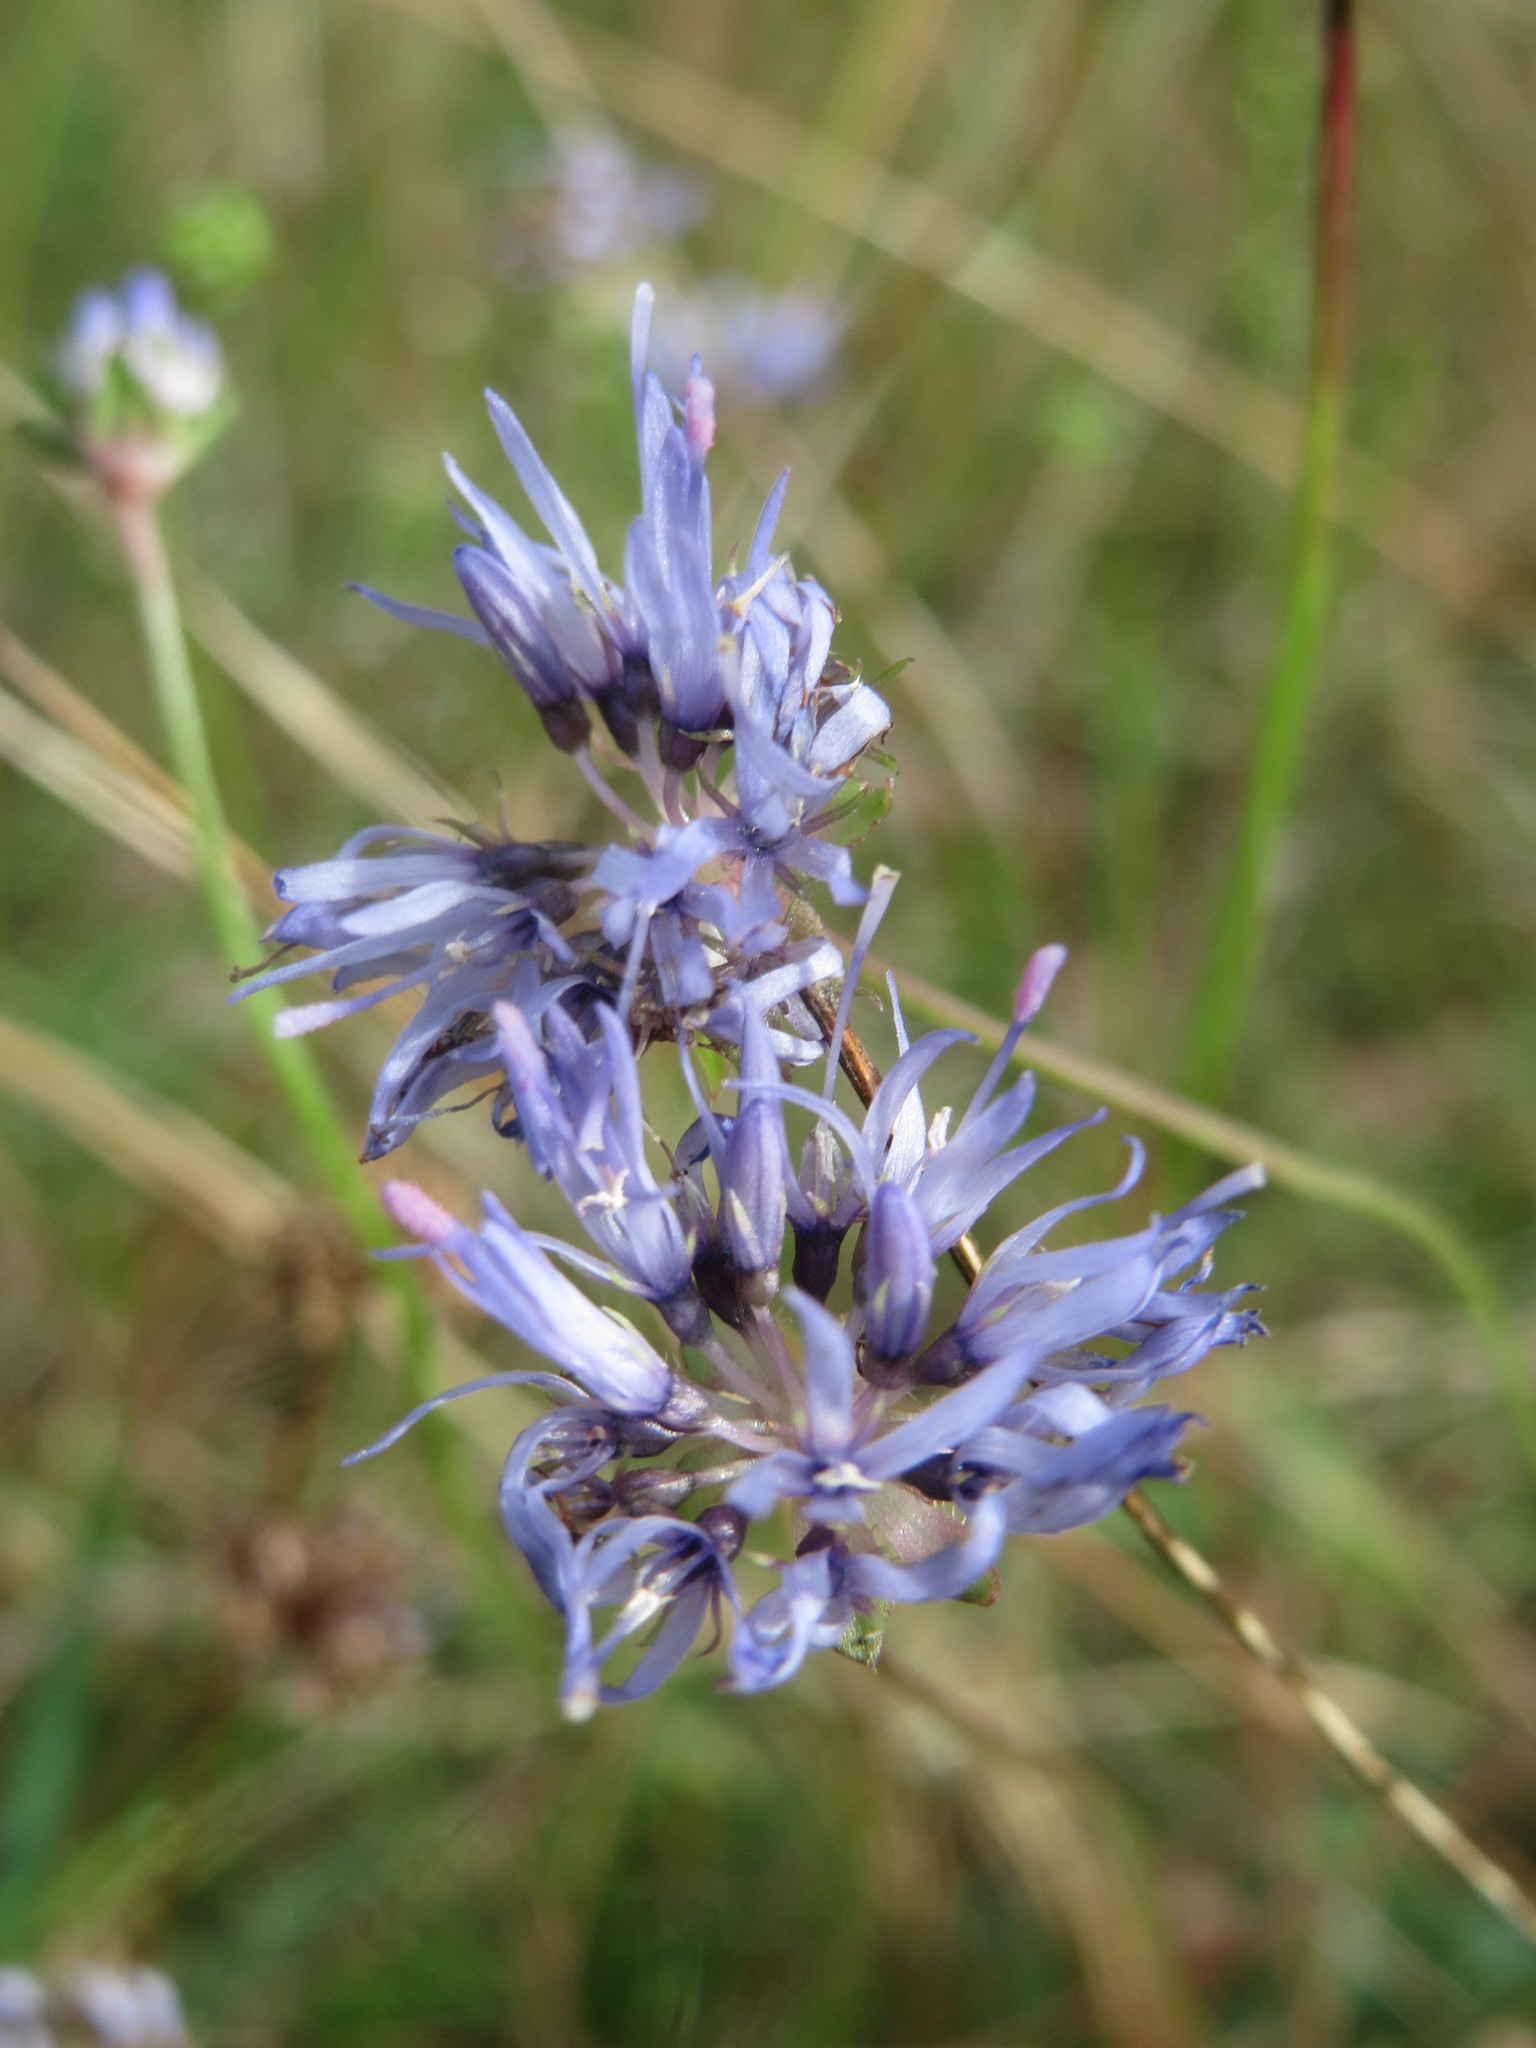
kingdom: Plantae
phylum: Tracheophyta
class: Magnoliopsida
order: Asterales
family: Campanulaceae
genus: Jasione
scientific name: Jasione montana
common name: Sheep's-bit
